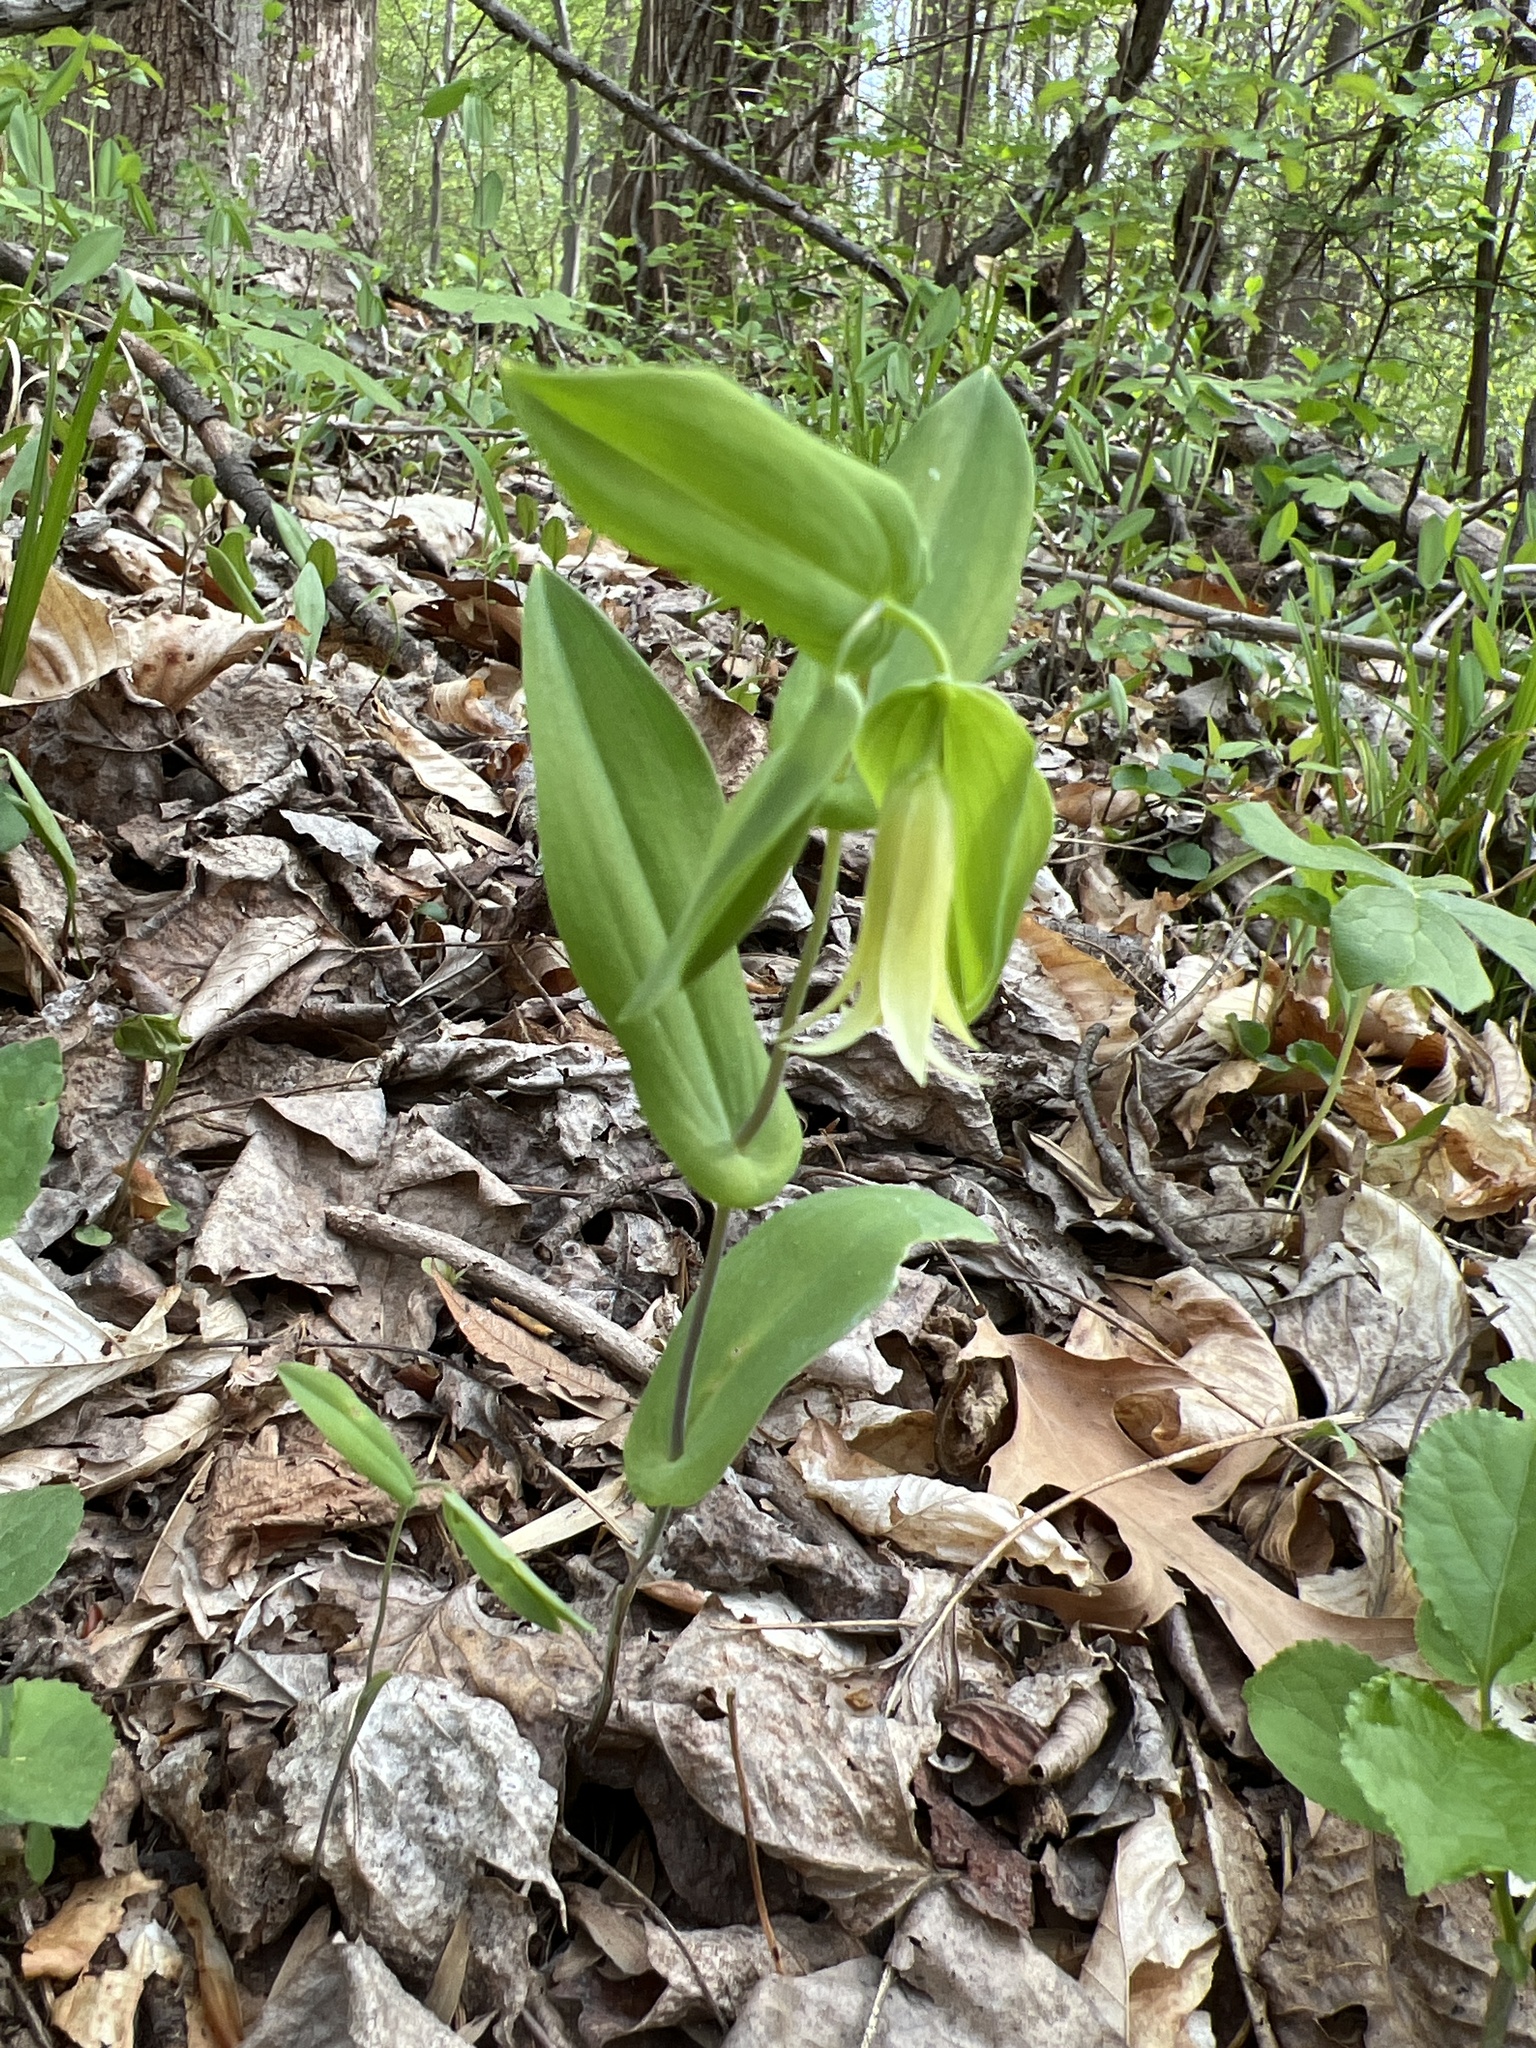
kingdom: Plantae
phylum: Tracheophyta
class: Liliopsida
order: Liliales
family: Colchicaceae
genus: Uvularia
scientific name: Uvularia perfoliata
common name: Perfoliate bellwort
